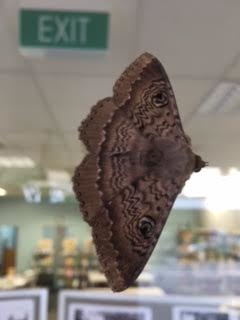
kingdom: Animalia
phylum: Arthropoda
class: Insecta
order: Lepidoptera
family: Erebidae
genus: Dasypodia
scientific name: Dasypodia cymatodes
